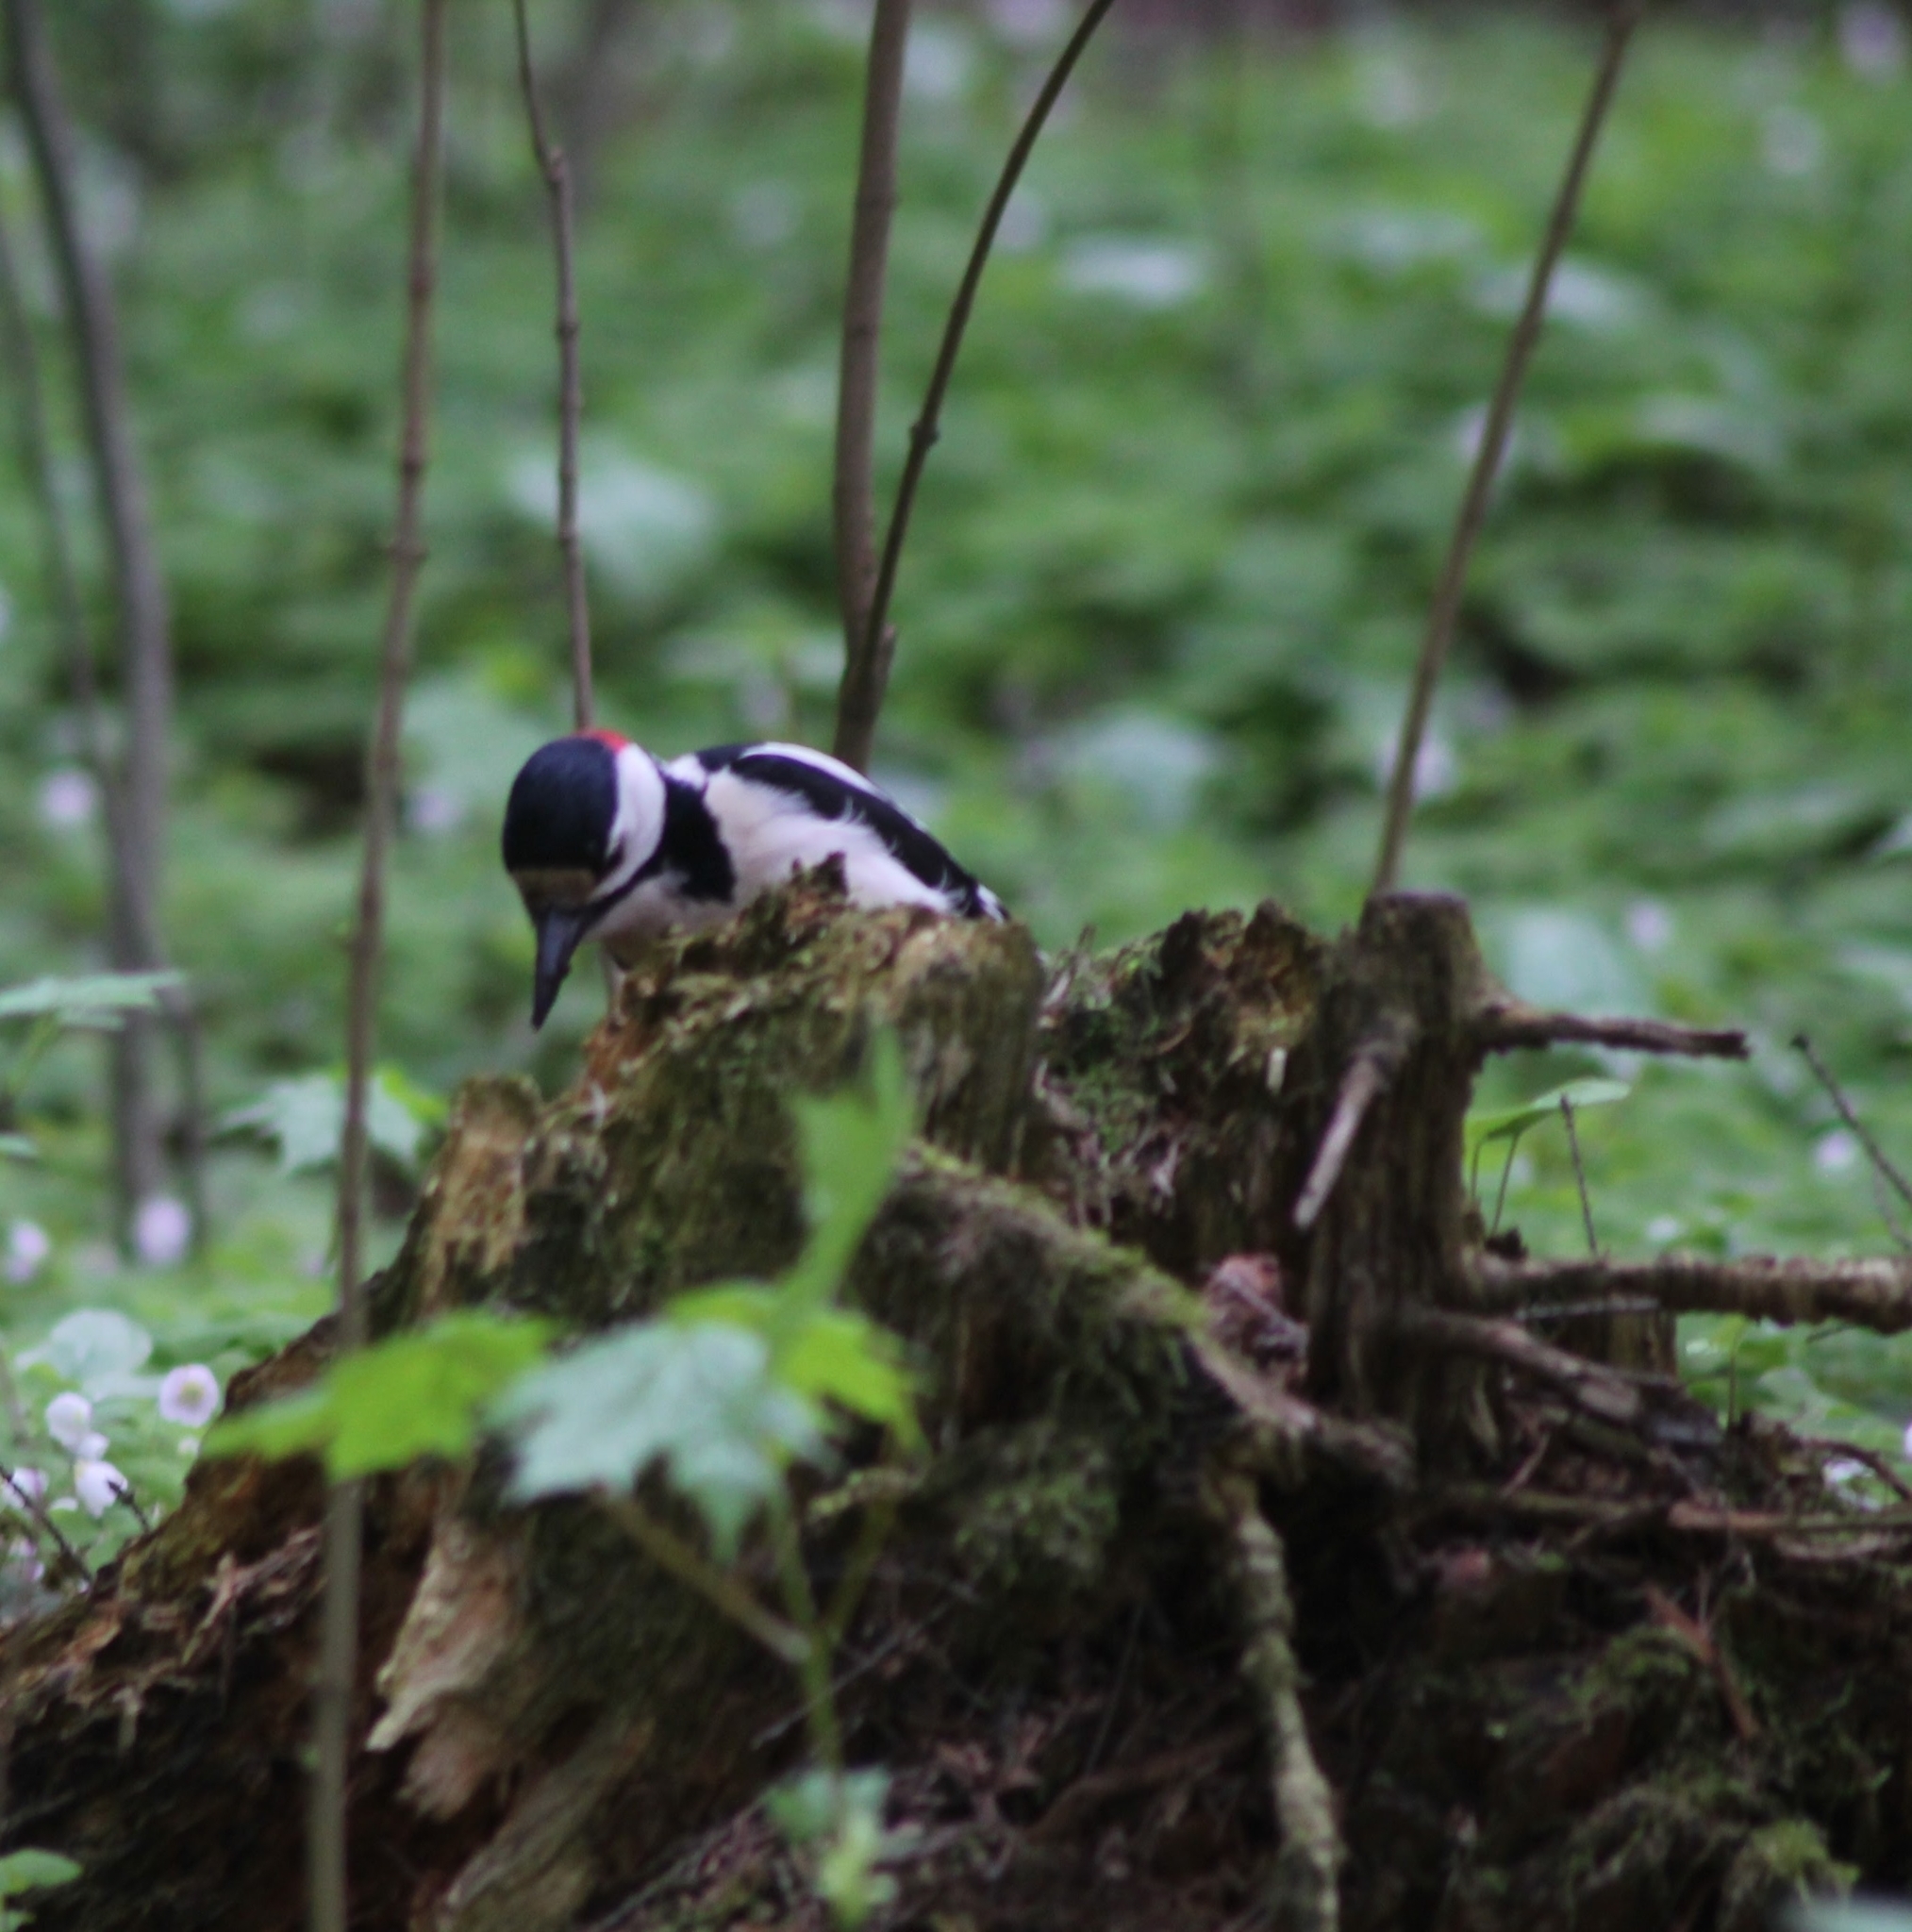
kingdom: Animalia
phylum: Chordata
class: Aves
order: Piciformes
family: Picidae
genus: Dendrocopos
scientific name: Dendrocopos major
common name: Great spotted woodpecker
